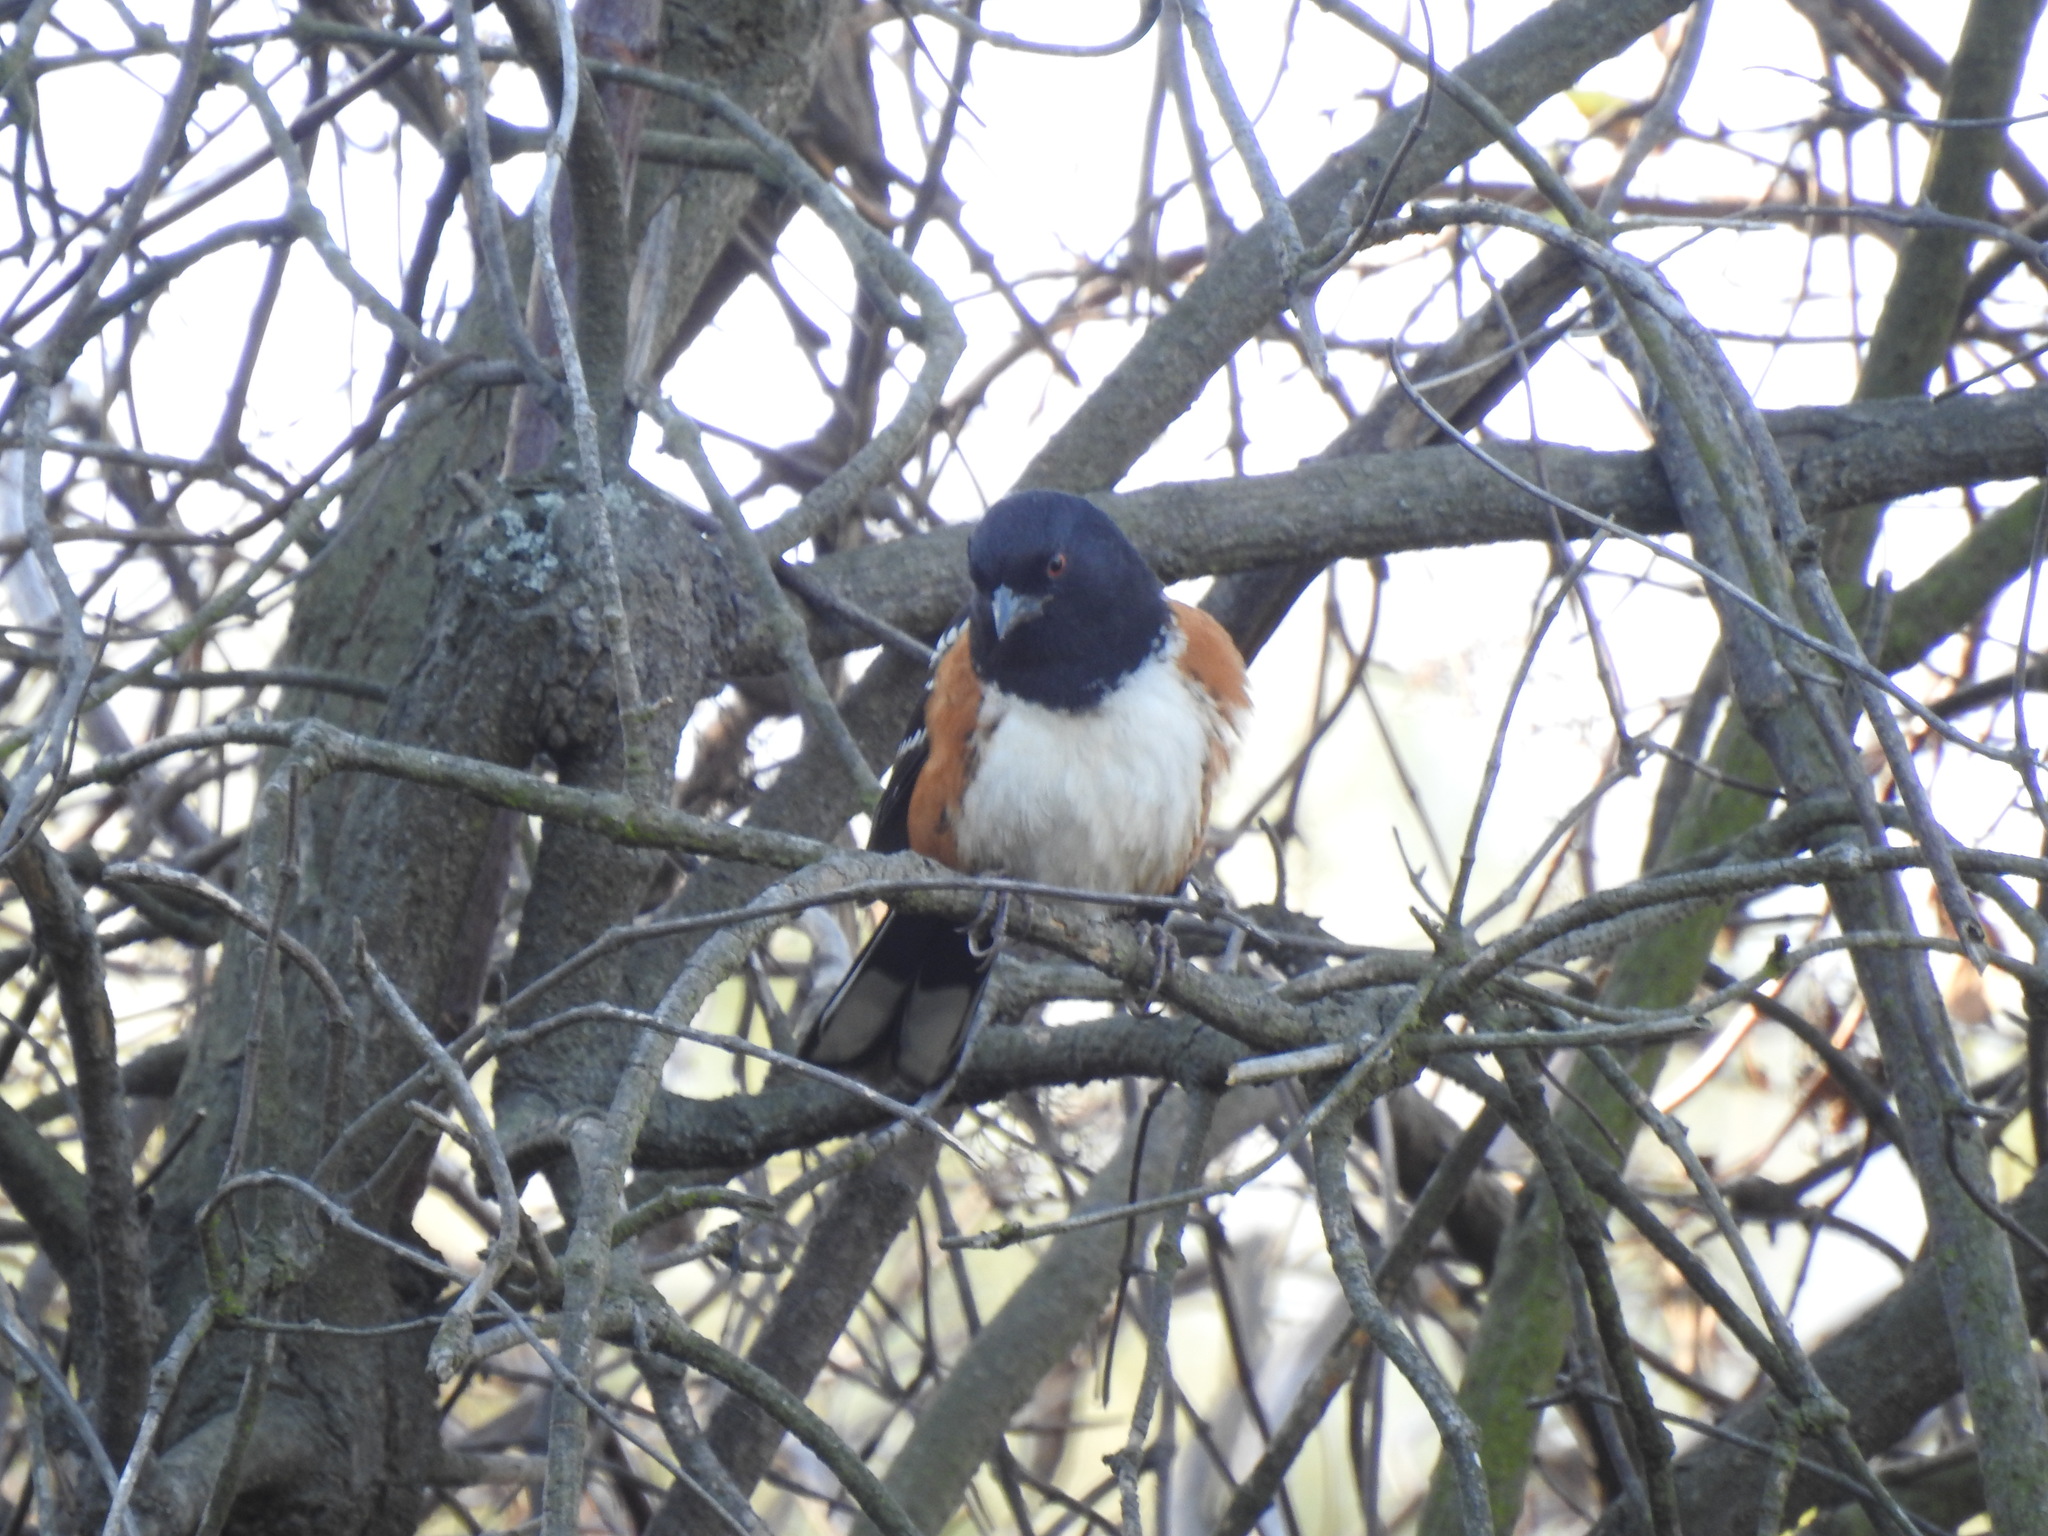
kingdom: Animalia
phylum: Chordata
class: Aves
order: Passeriformes
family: Passerellidae
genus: Pipilo
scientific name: Pipilo maculatus
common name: Spotted towhee
